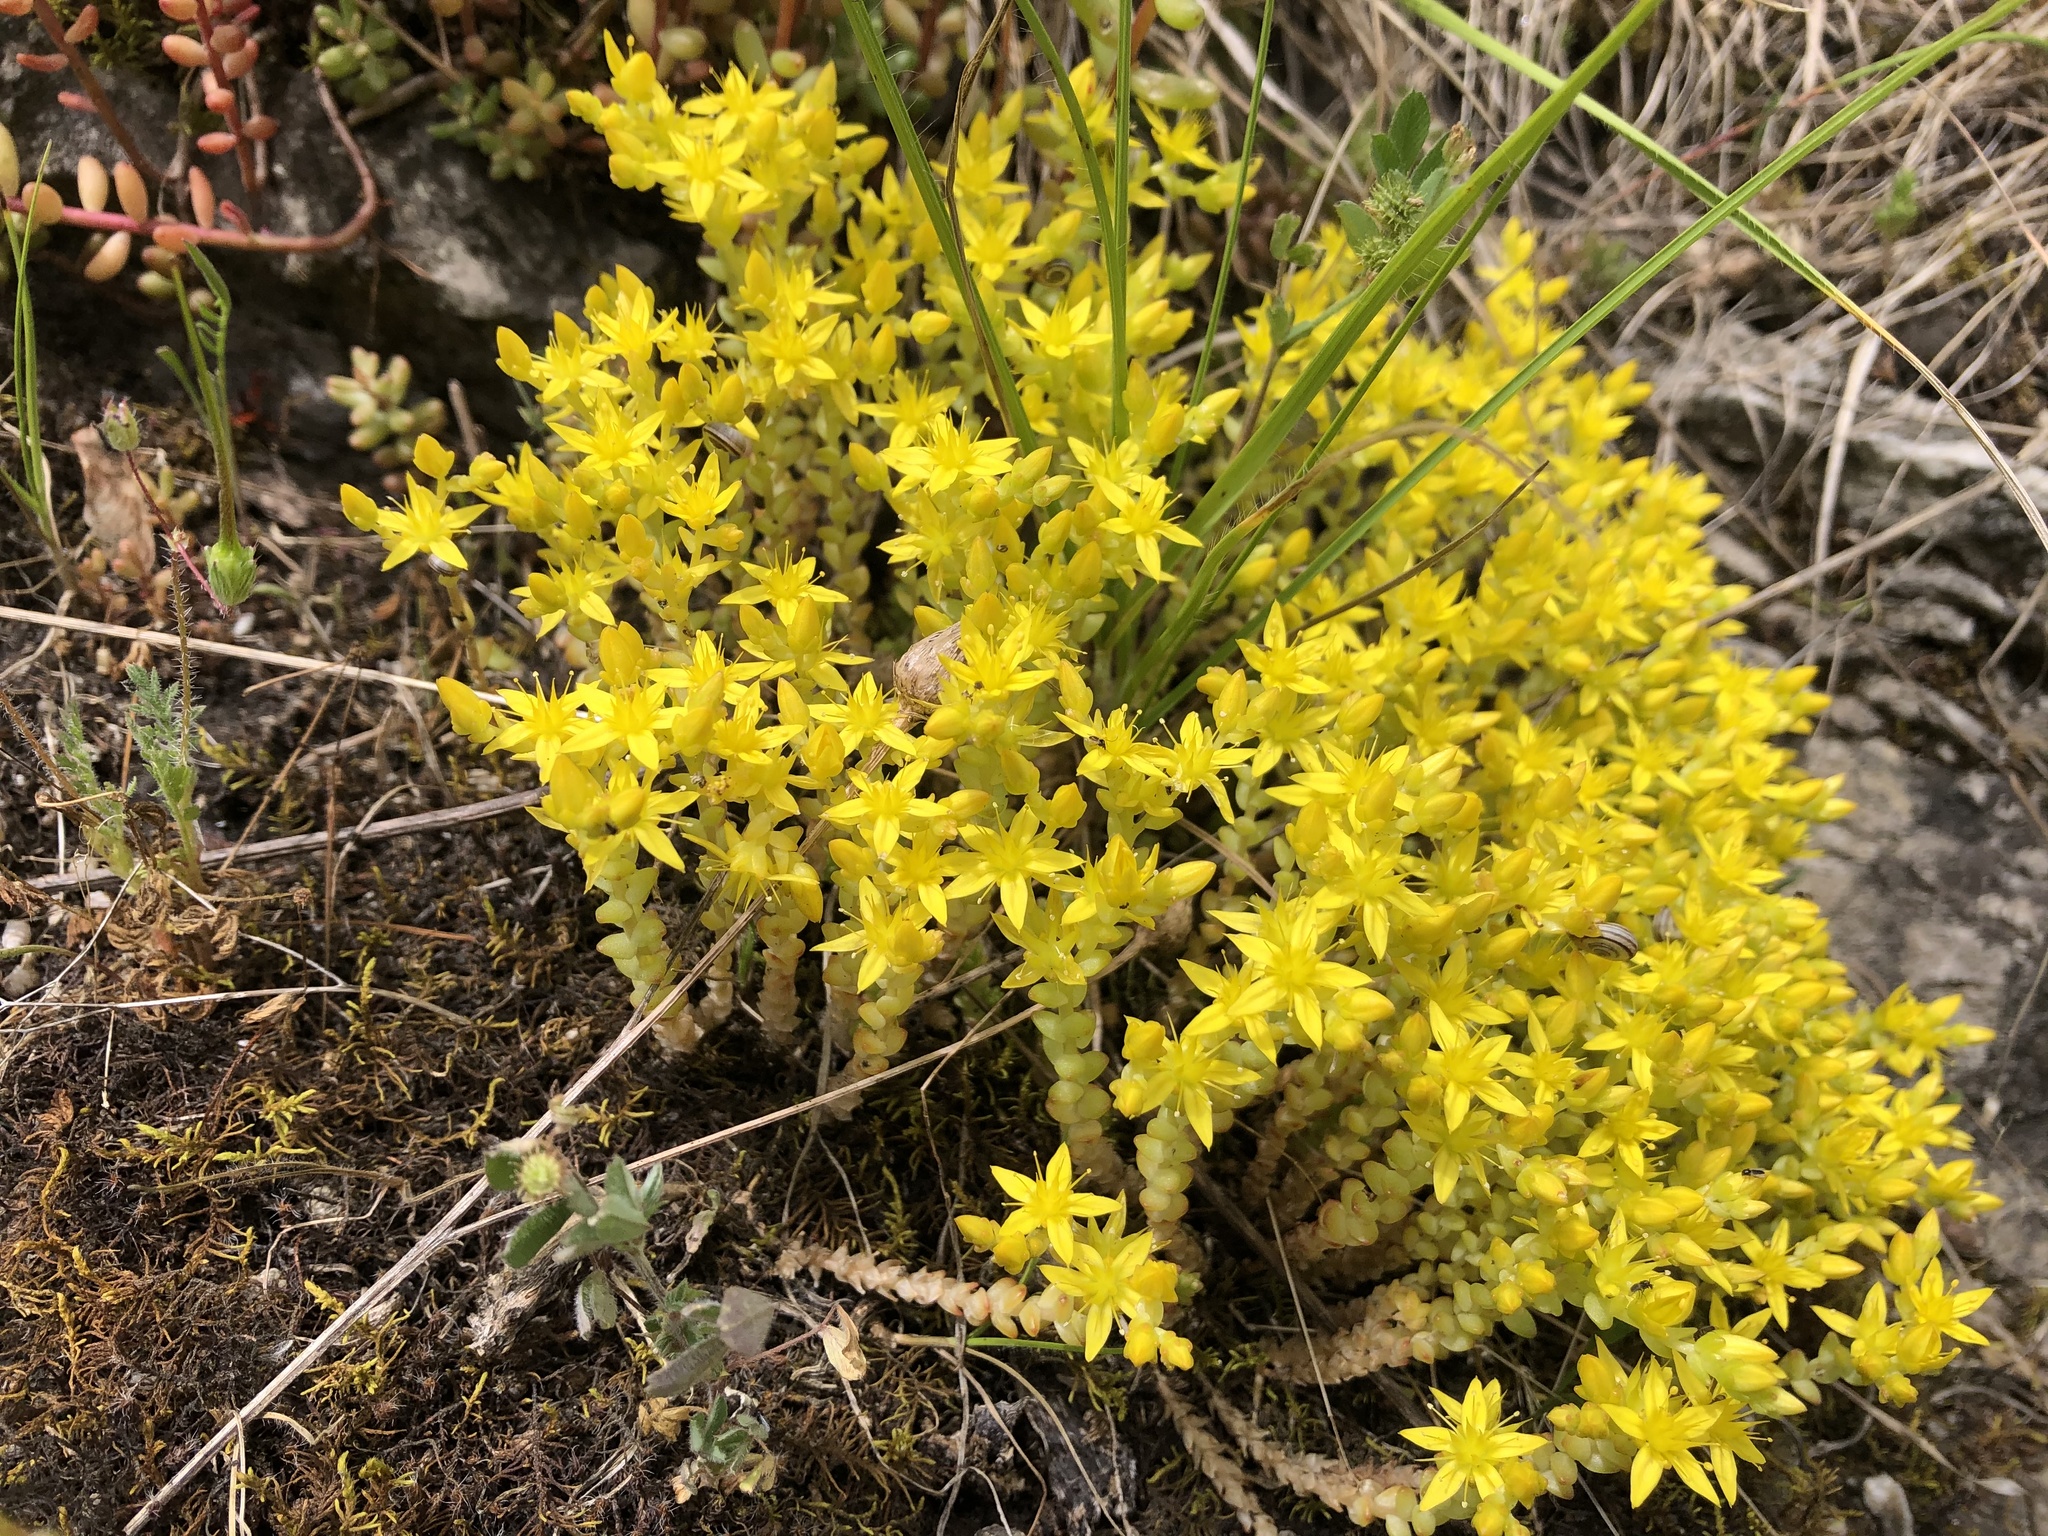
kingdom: Plantae
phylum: Tracheophyta
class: Magnoliopsida
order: Saxifragales
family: Crassulaceae
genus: Sedum
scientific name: Sedum acre
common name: Biting stonecrop
